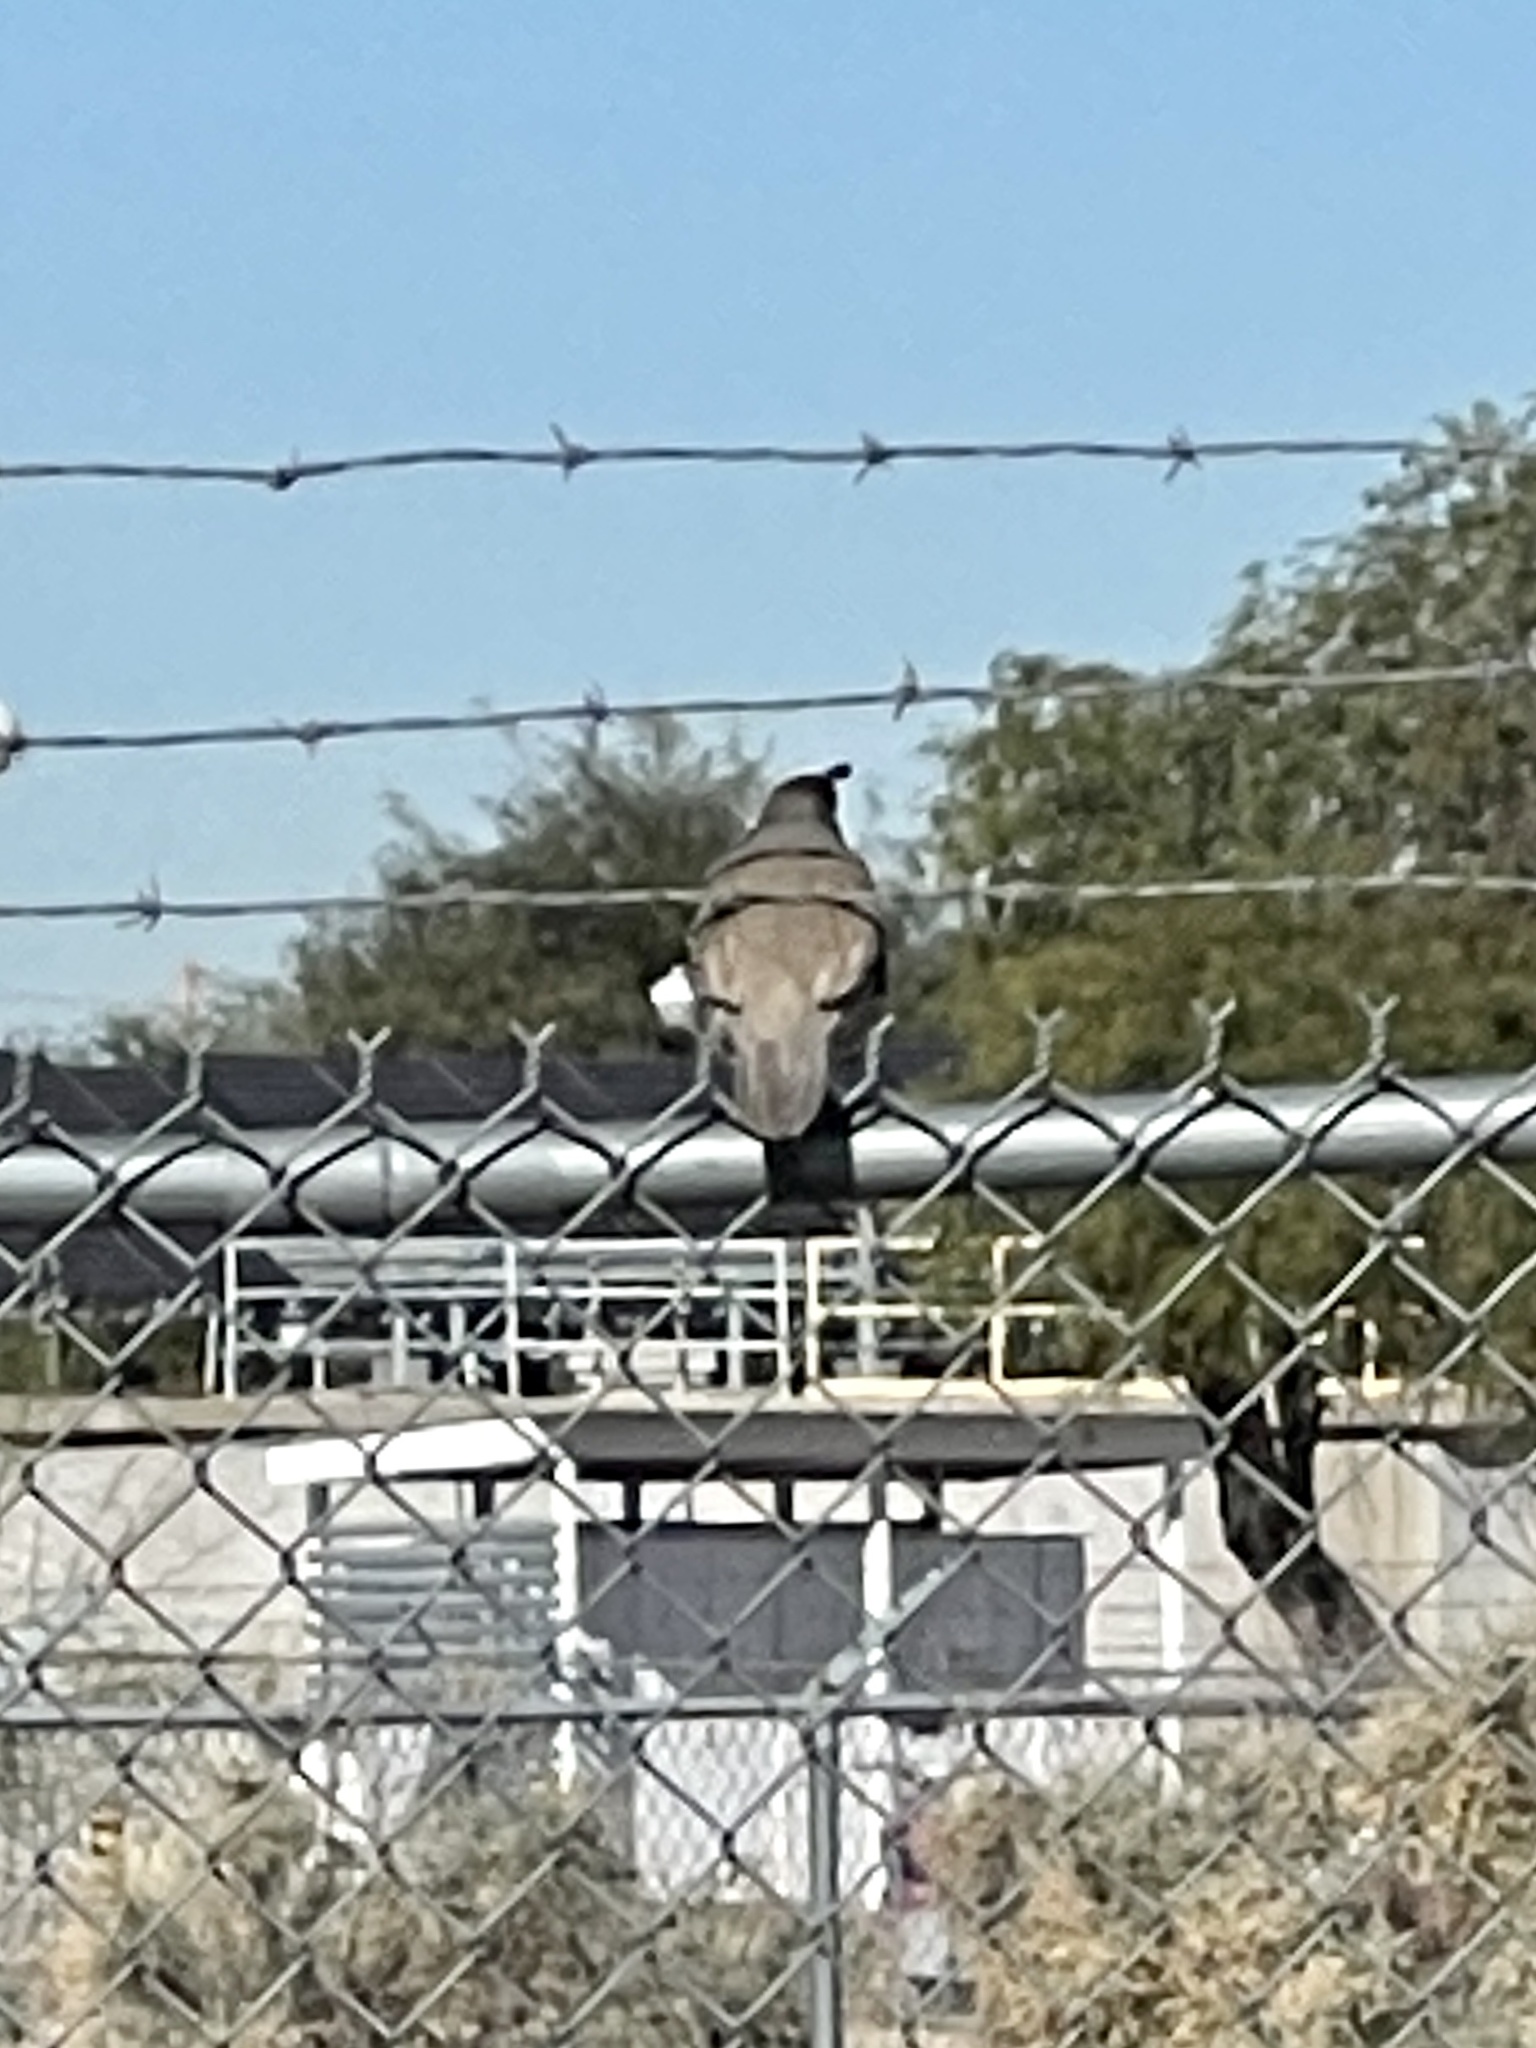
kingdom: Animalia
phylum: Chordata
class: Aves
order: Galliformes
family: Odontophoridae
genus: Callipepla
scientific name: Callipepla gambelii
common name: Gambel's quail
